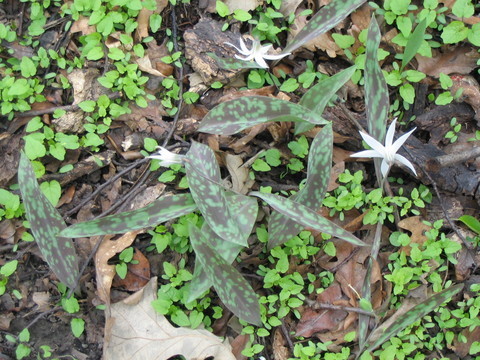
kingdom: Plantae
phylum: Tracheophyta
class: Liliopsida
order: Liliales
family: Liliaceae
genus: Erythronium
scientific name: Erythronium albidum
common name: White trout-lily
